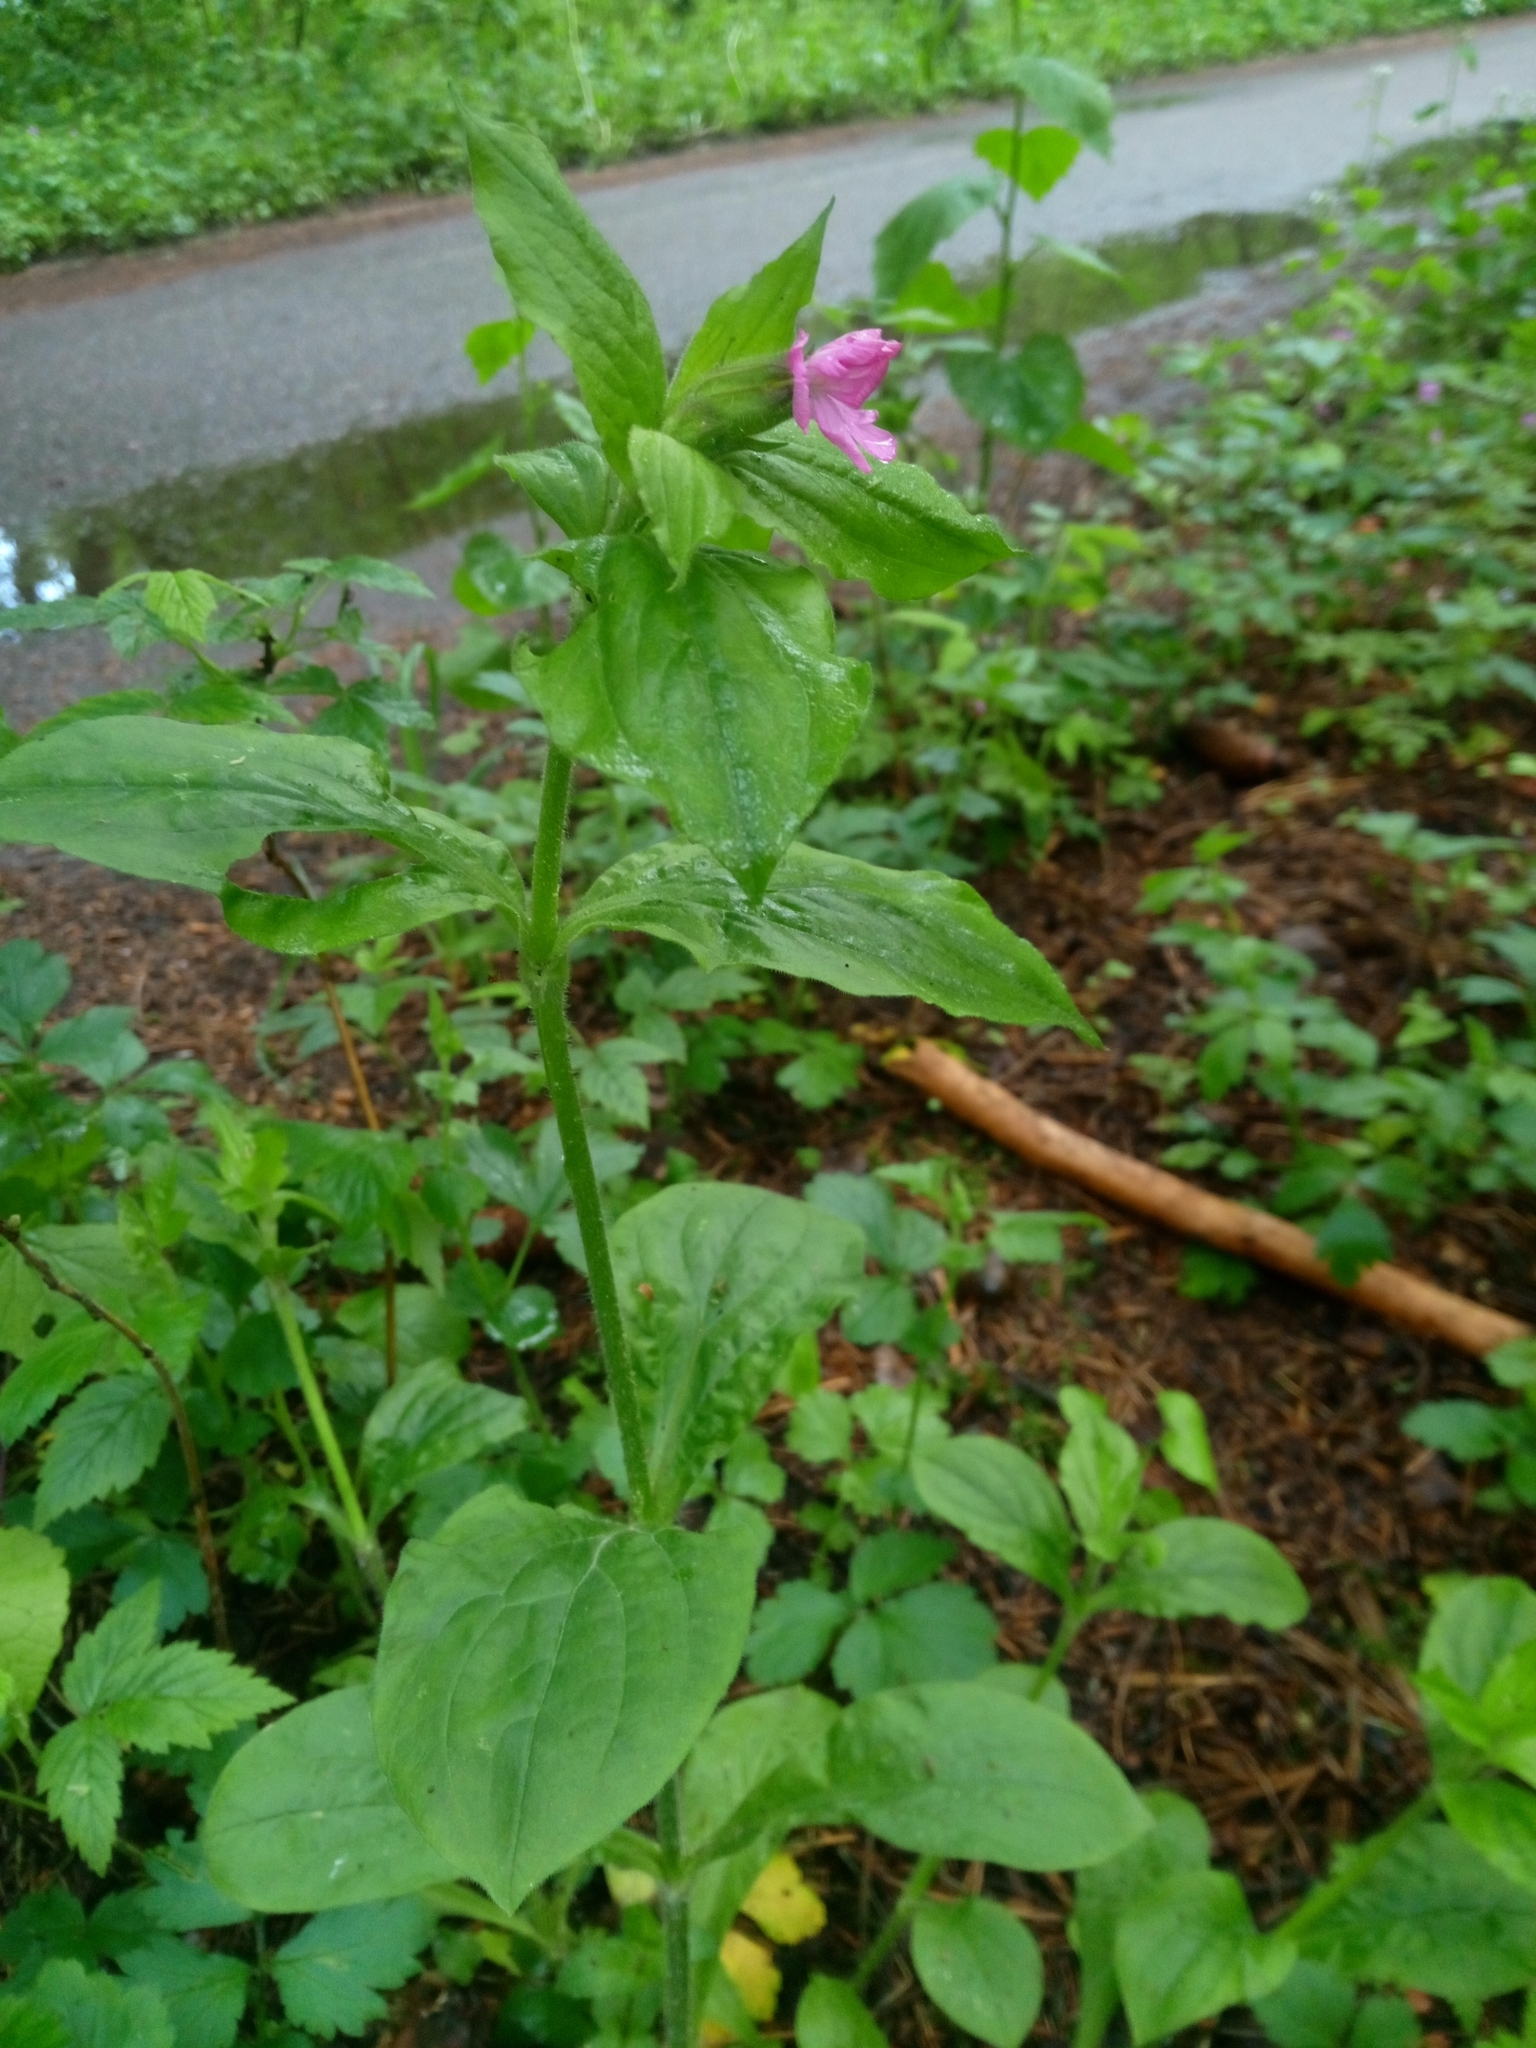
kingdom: Plantae
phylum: Tracheophyta
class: Magnoliopsida
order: Caryophyllales
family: Caryophyllaceae
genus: Silene
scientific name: Silene dioica
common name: Red campion
